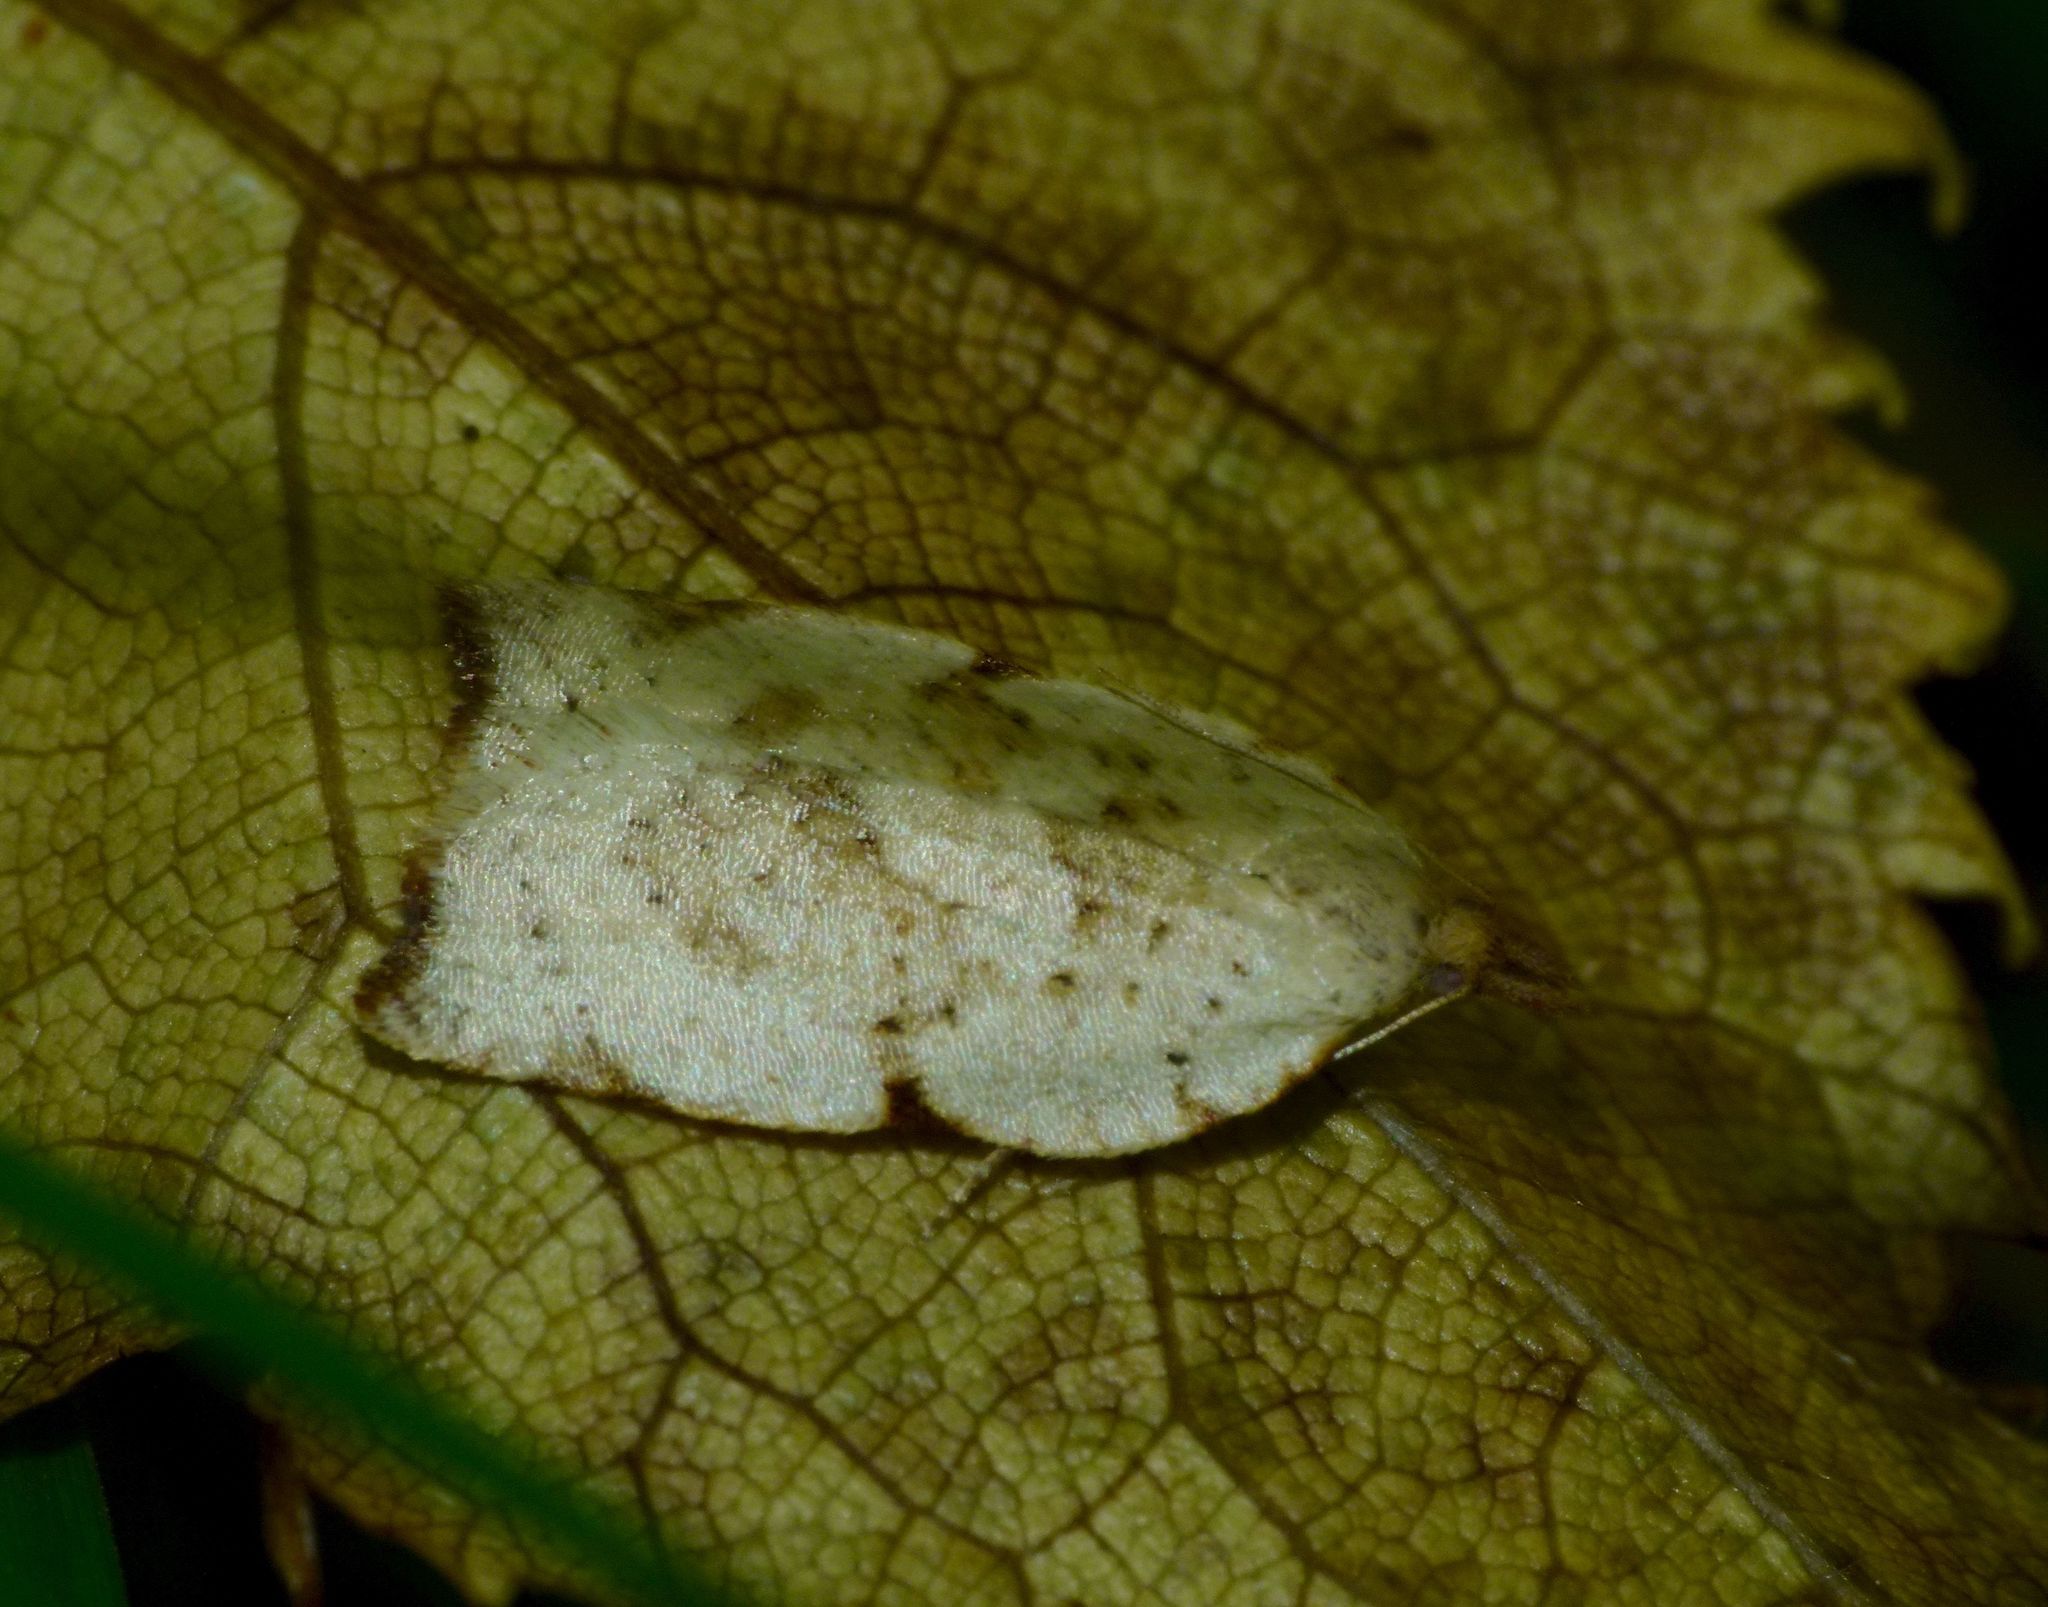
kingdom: Animalia
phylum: Arthropoda
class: Insecta
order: Lepidoptera
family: Tortricidae
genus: Apoctena
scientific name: Apoctena flavescens
